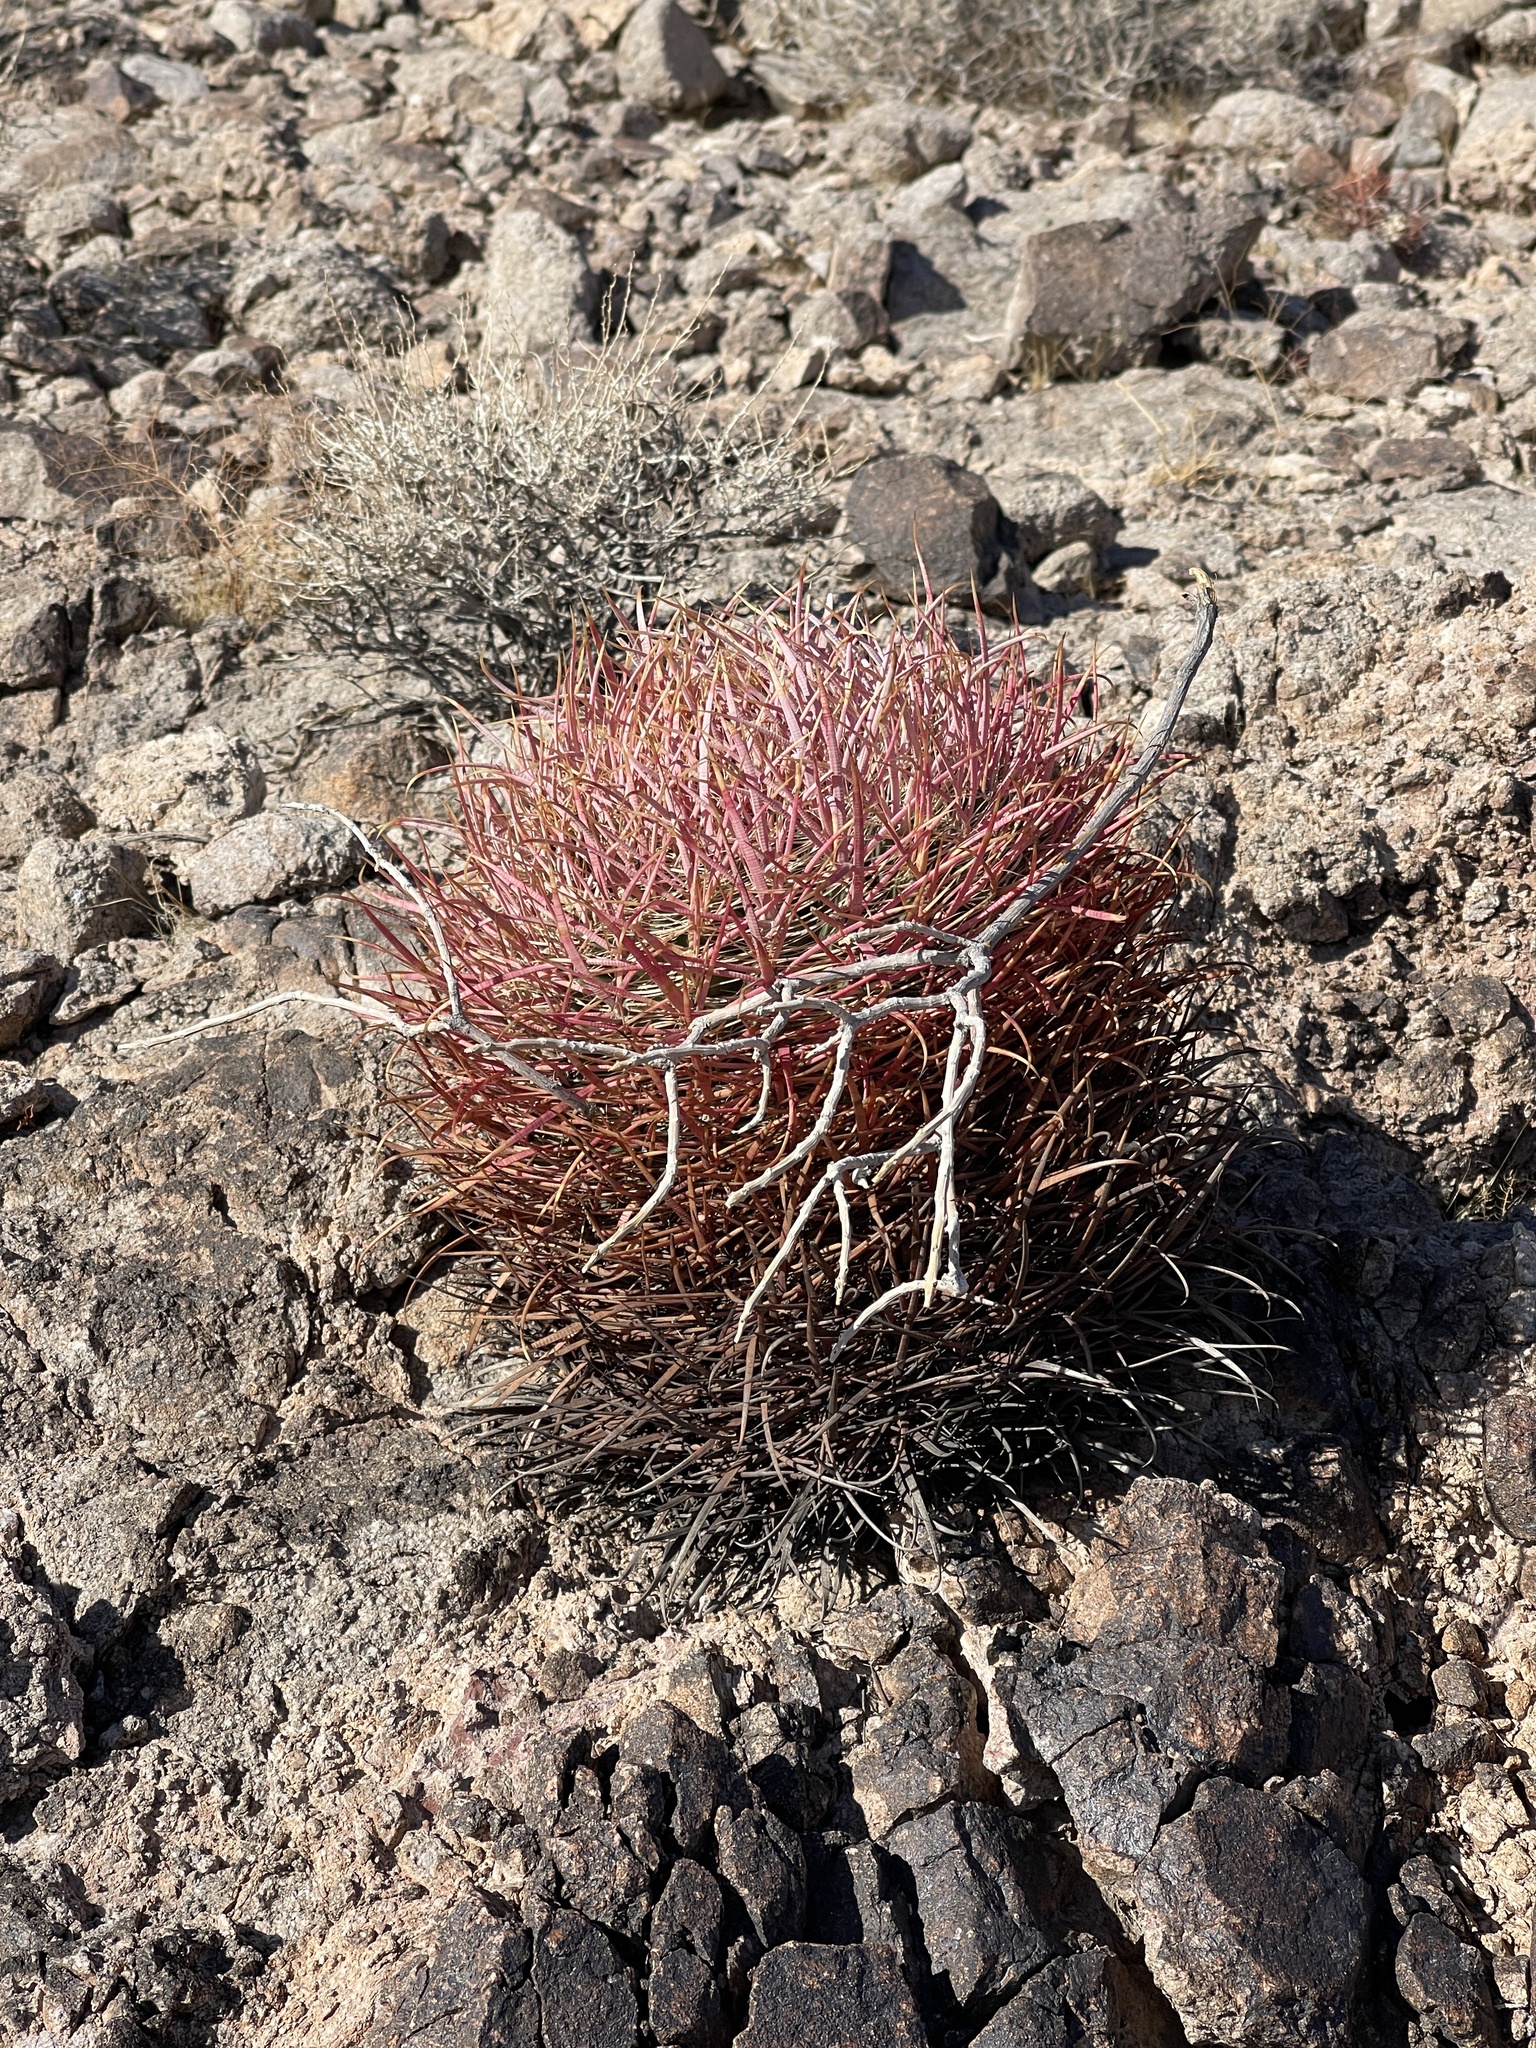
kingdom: Plantae
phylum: Tracheophyta
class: Magnoliopsida
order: Caryophyllales
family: Cactaceae
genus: Ferocactus
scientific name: Ferocactus cylindraceus
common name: California barrel cactus
